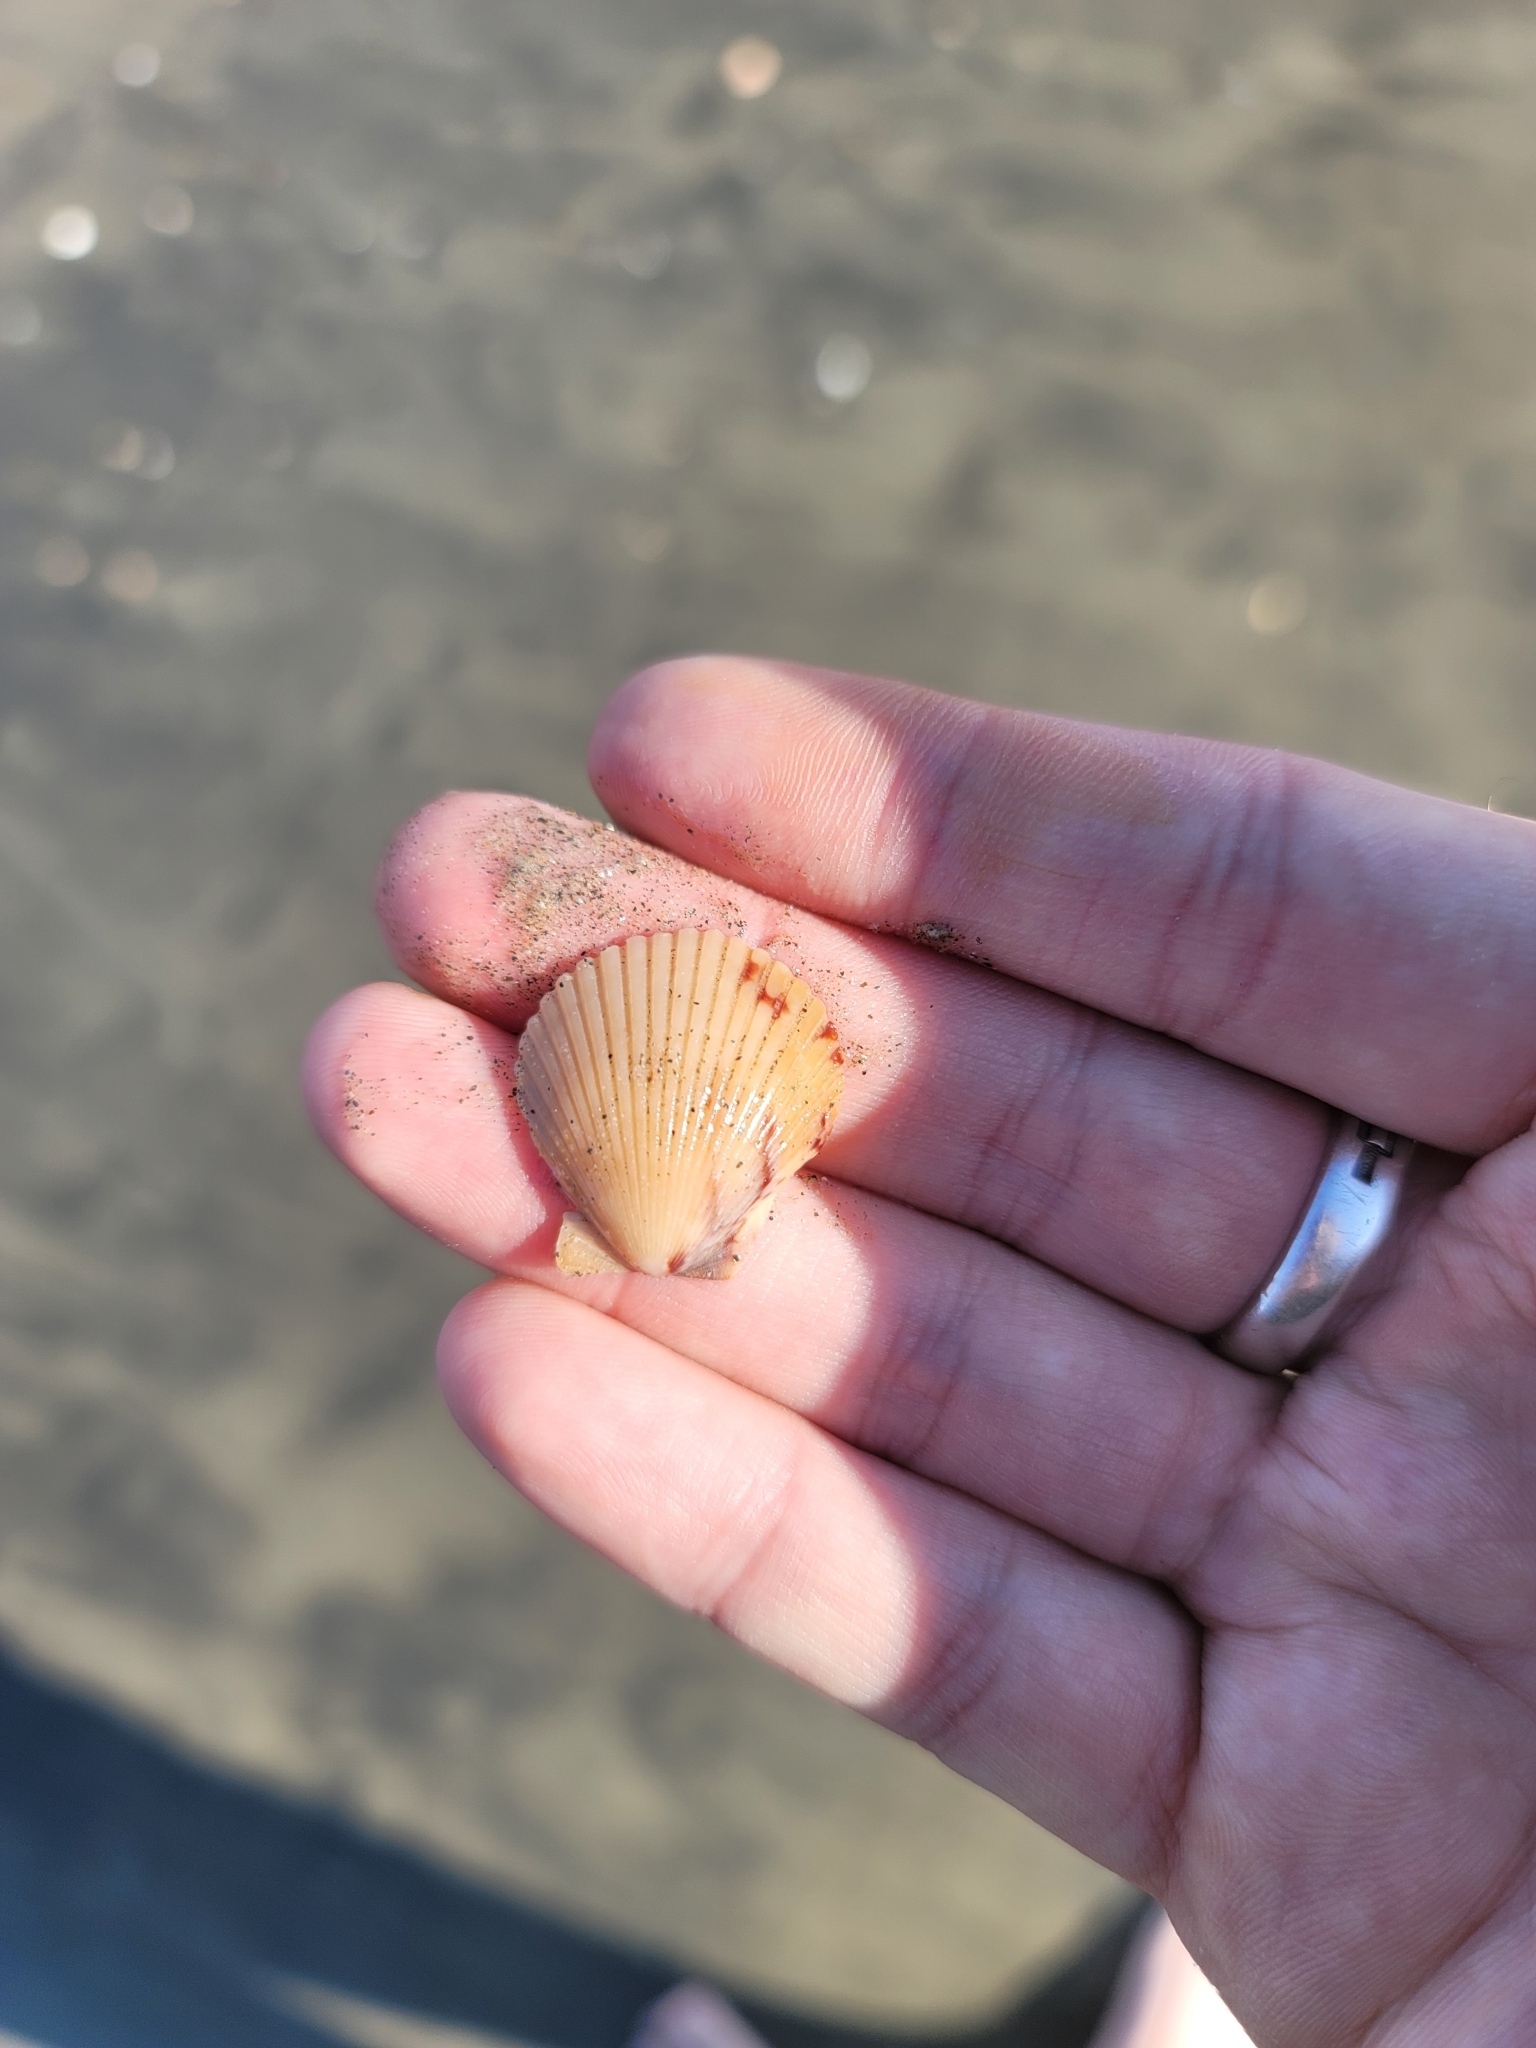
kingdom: Animalia
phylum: Mollusca
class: Bivalvia
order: Pectinida
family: Pectinidae
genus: Argopecten
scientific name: Argopecten ventricosus
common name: Catarina scallop
